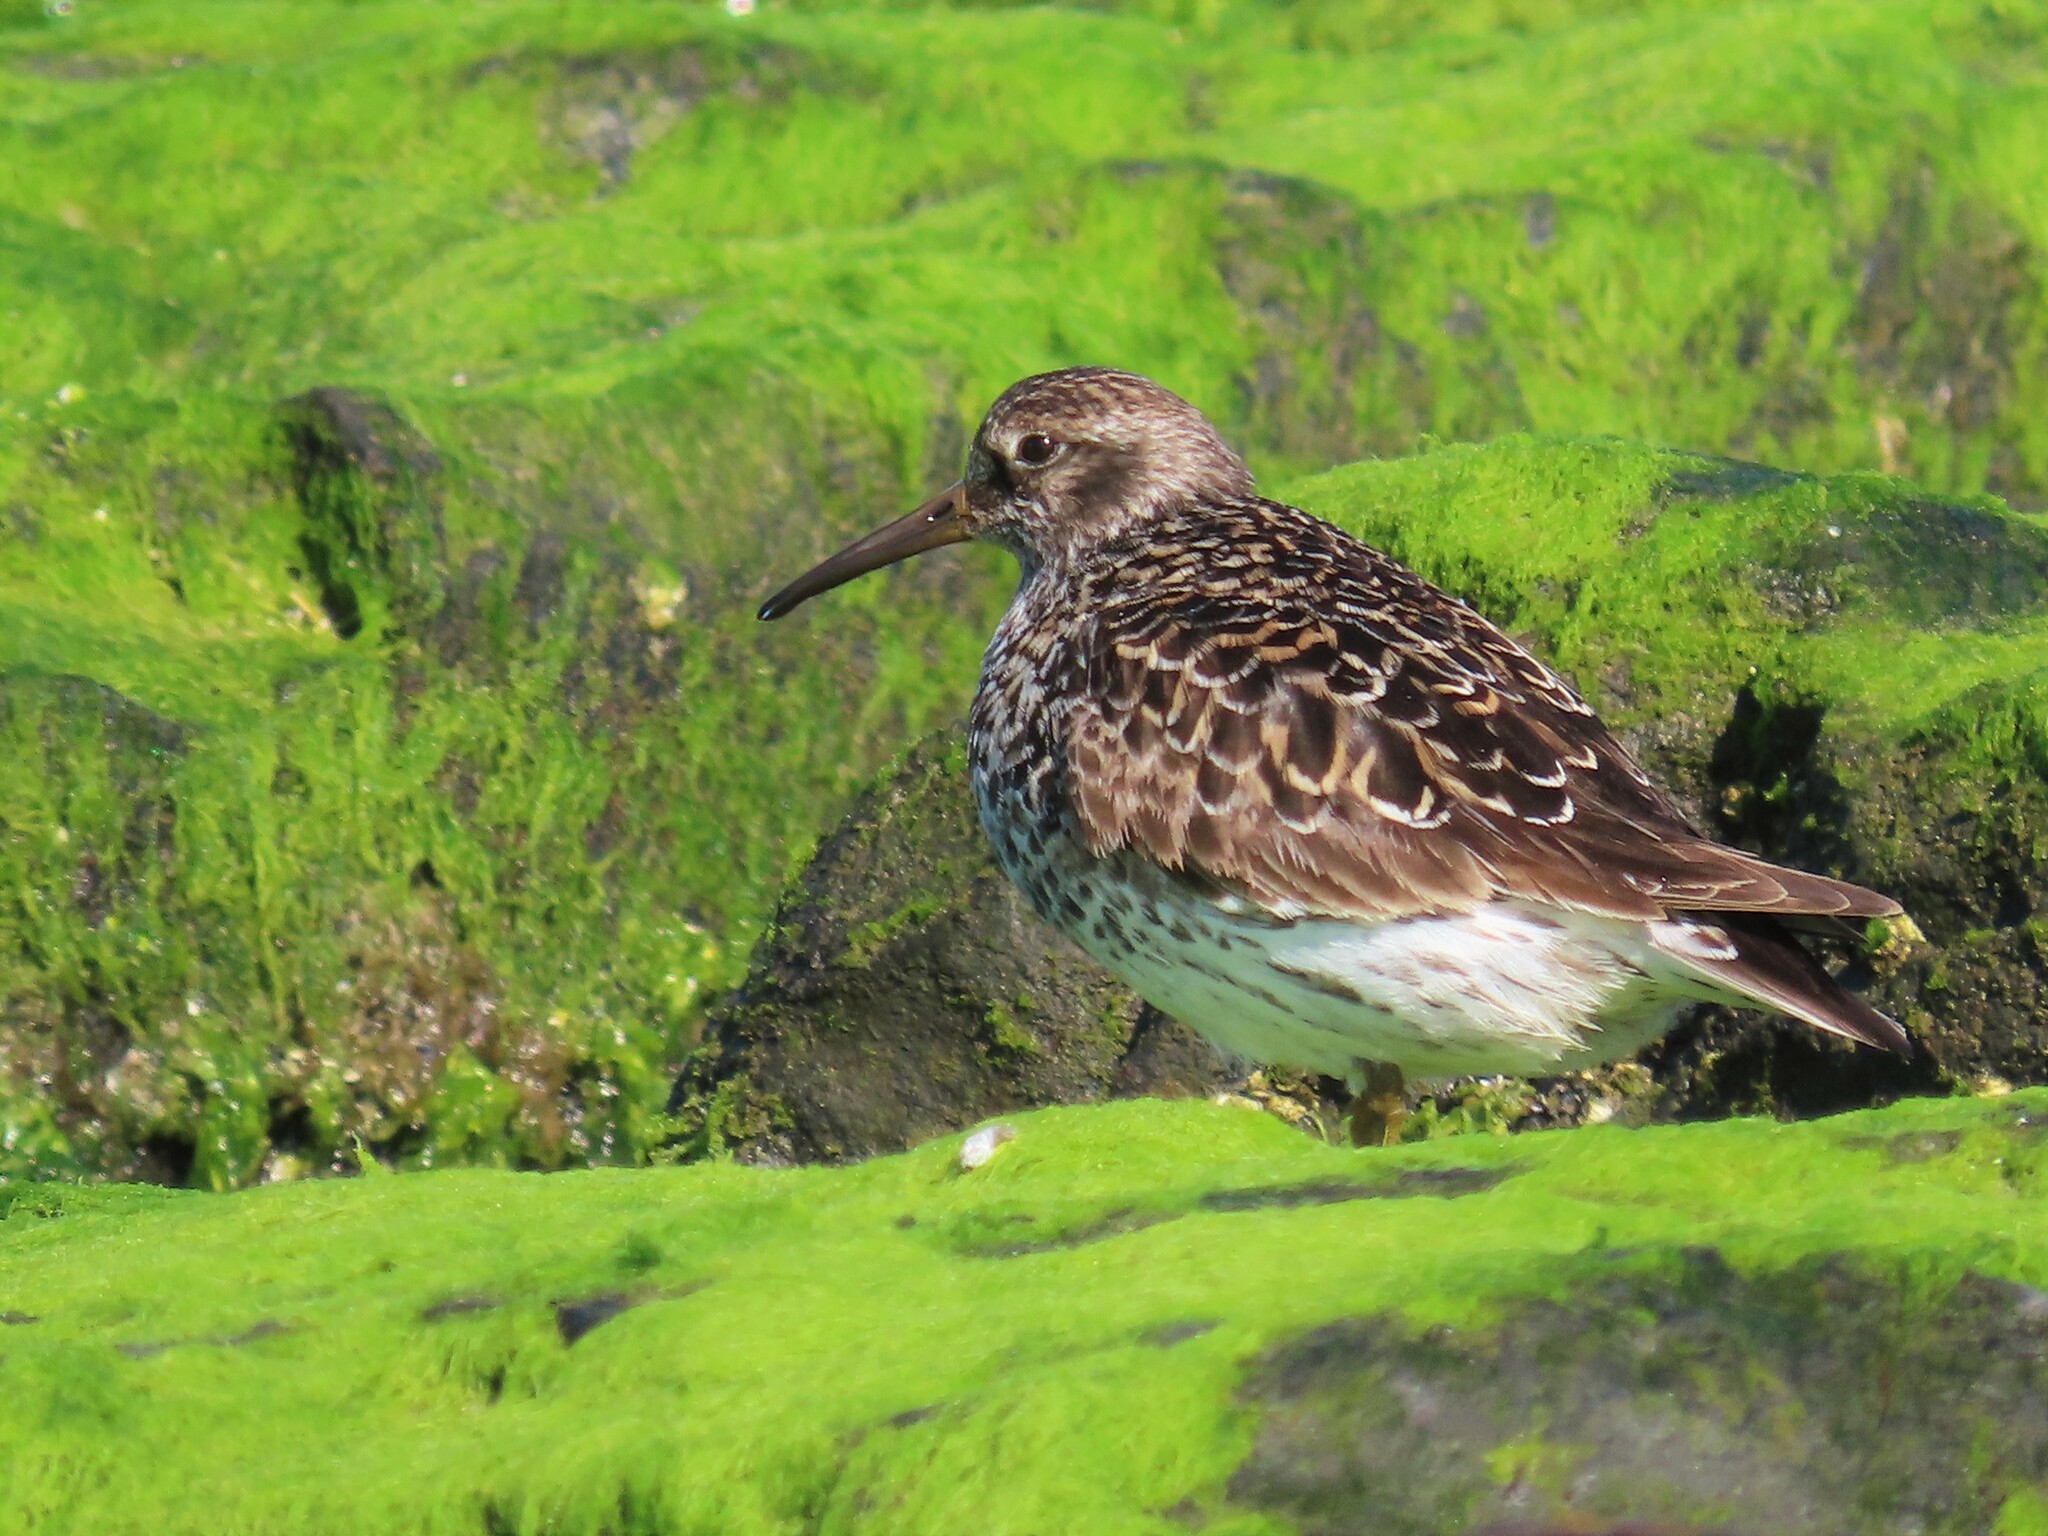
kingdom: Animalia
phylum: Chordata
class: Aves
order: Charadriiformes
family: Scolopacidae
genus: Calidris
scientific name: Calidris maritima
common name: Purple sandpiper
